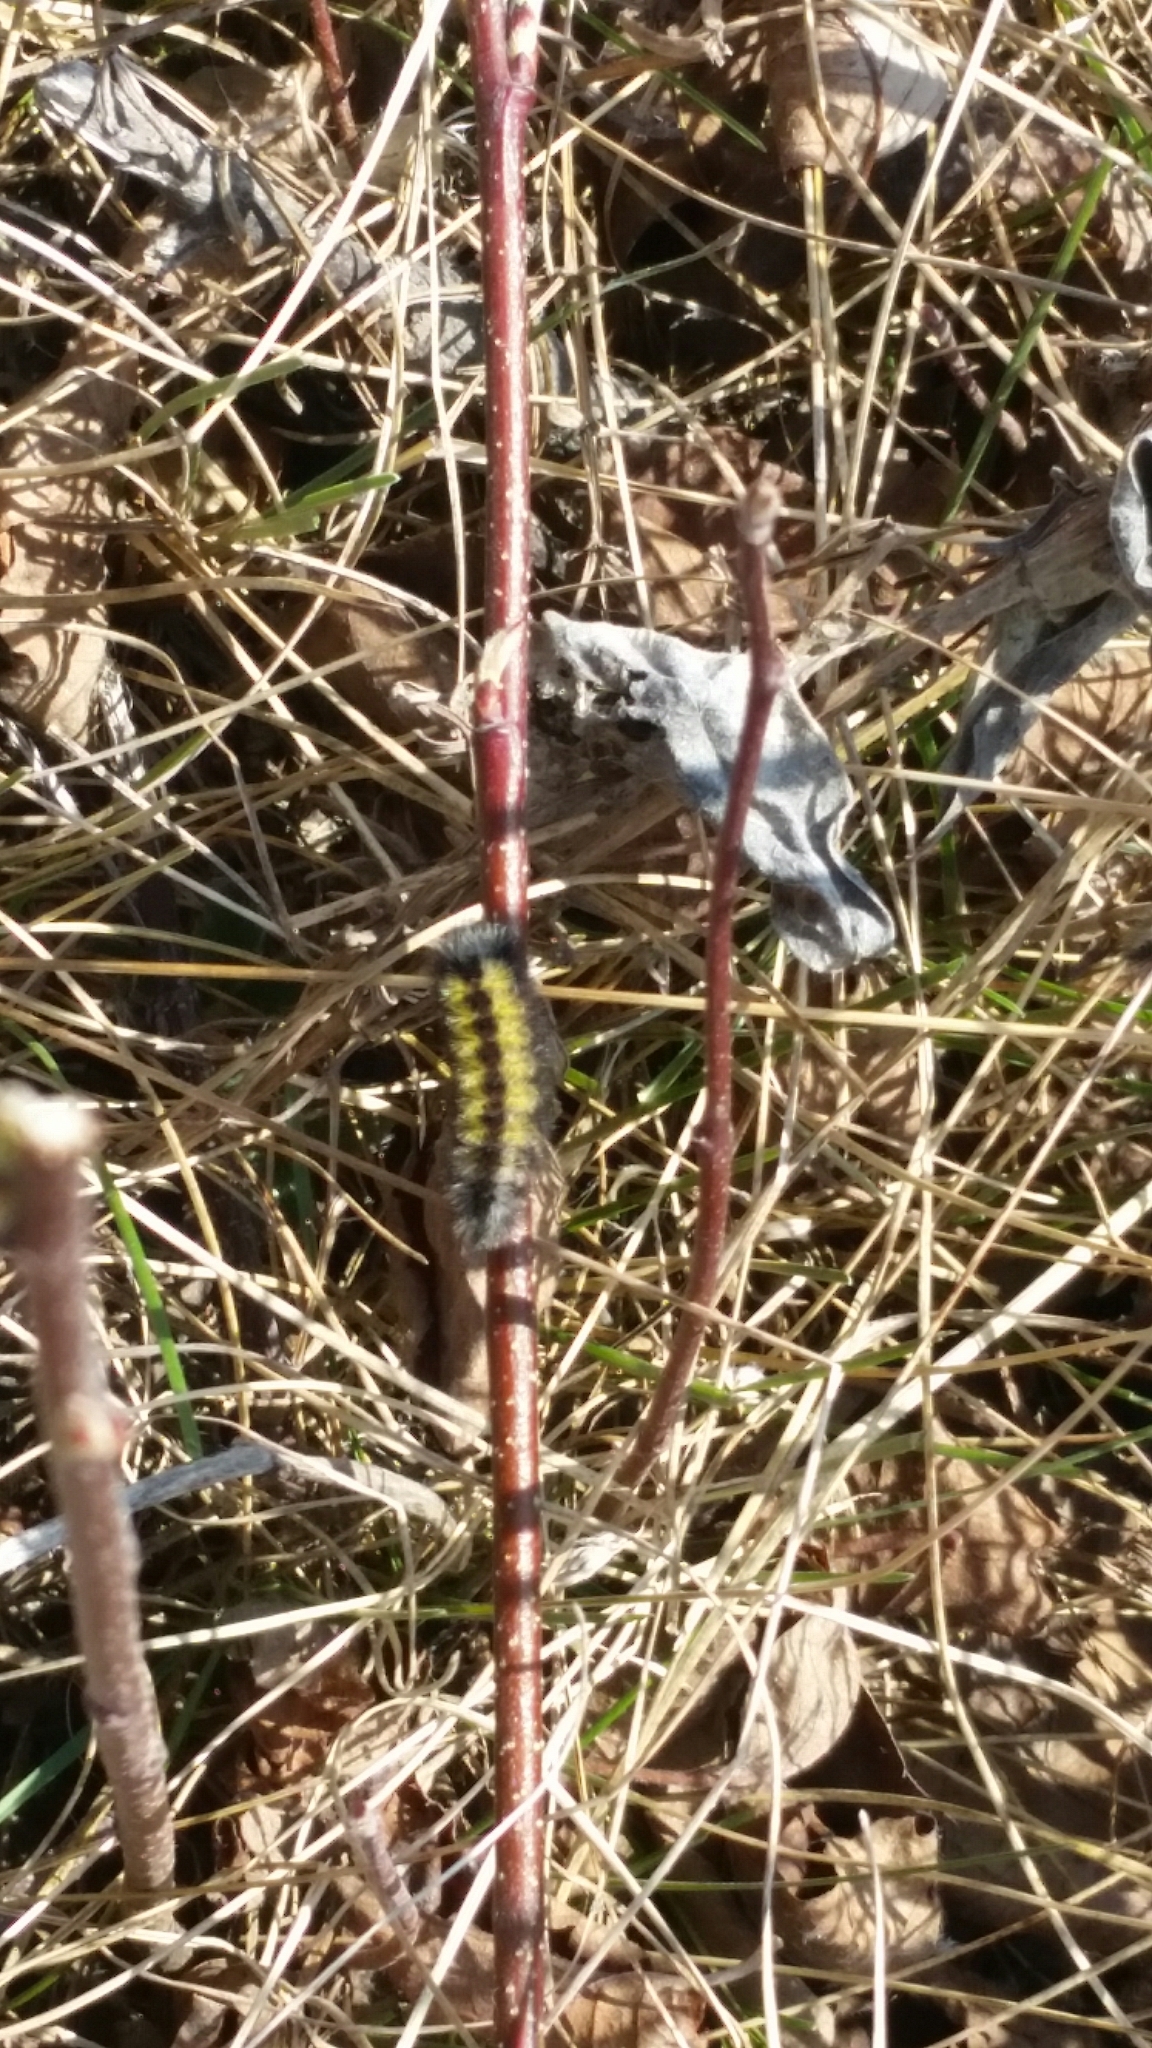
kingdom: Animalia
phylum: Arthropoda
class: Insecta
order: Lepidoptera
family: Erebidae
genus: Ctenucha
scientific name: Ctenucha virginica
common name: Virginia ctenucha moth
